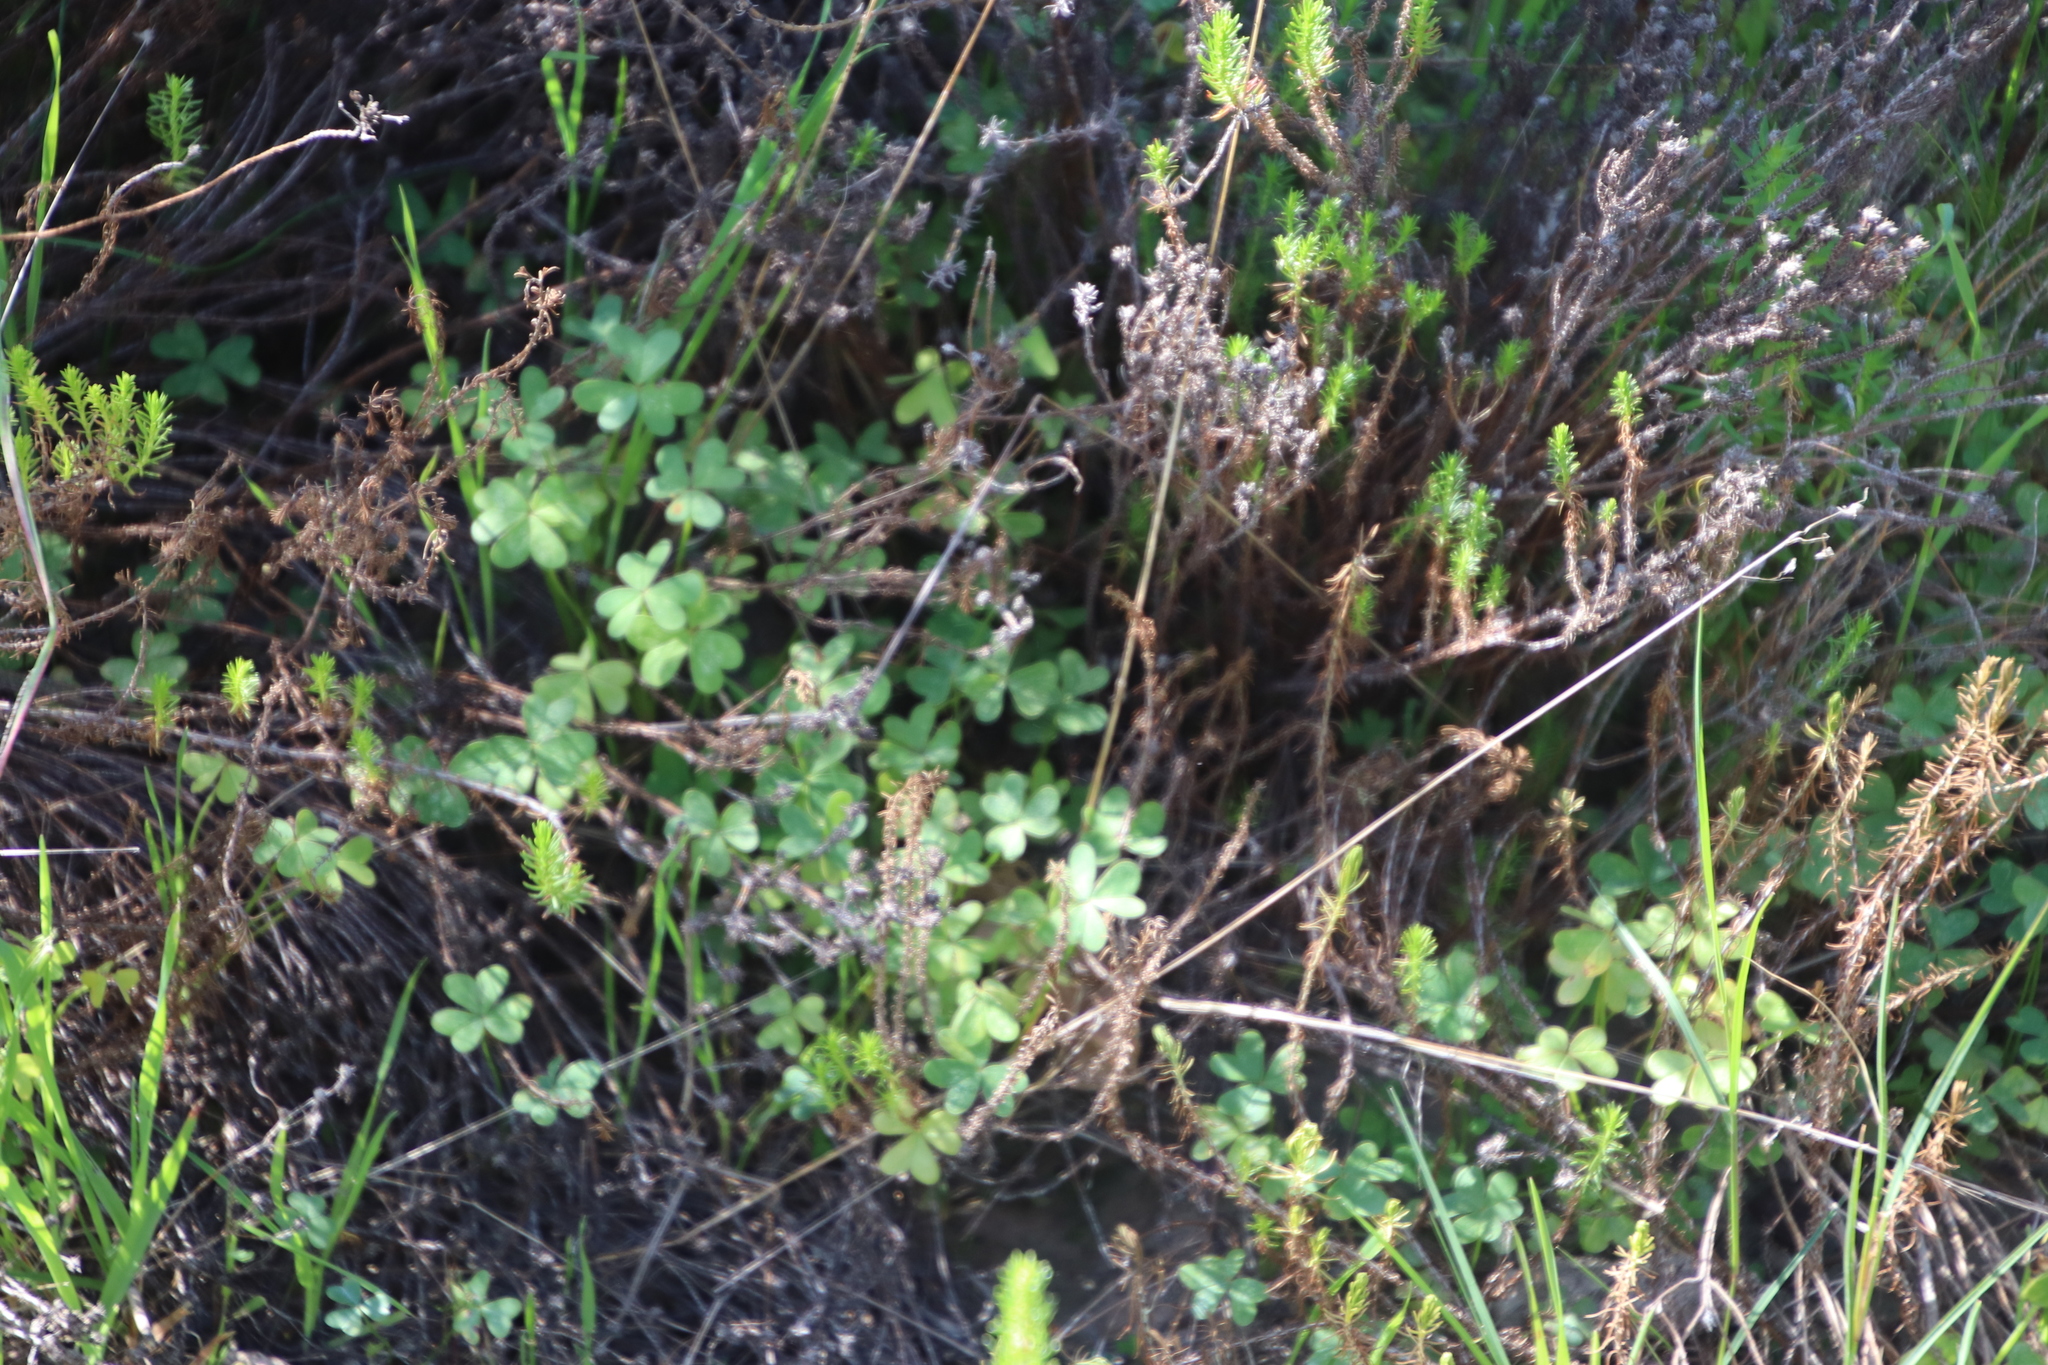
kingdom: Plantae
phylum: Tracheophyta
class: Magnoliopsida
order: Oxalidales
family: Oxalidaceae
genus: Oxalis
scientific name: Oxalis pes-caprae
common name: Bermuda-buttercup
